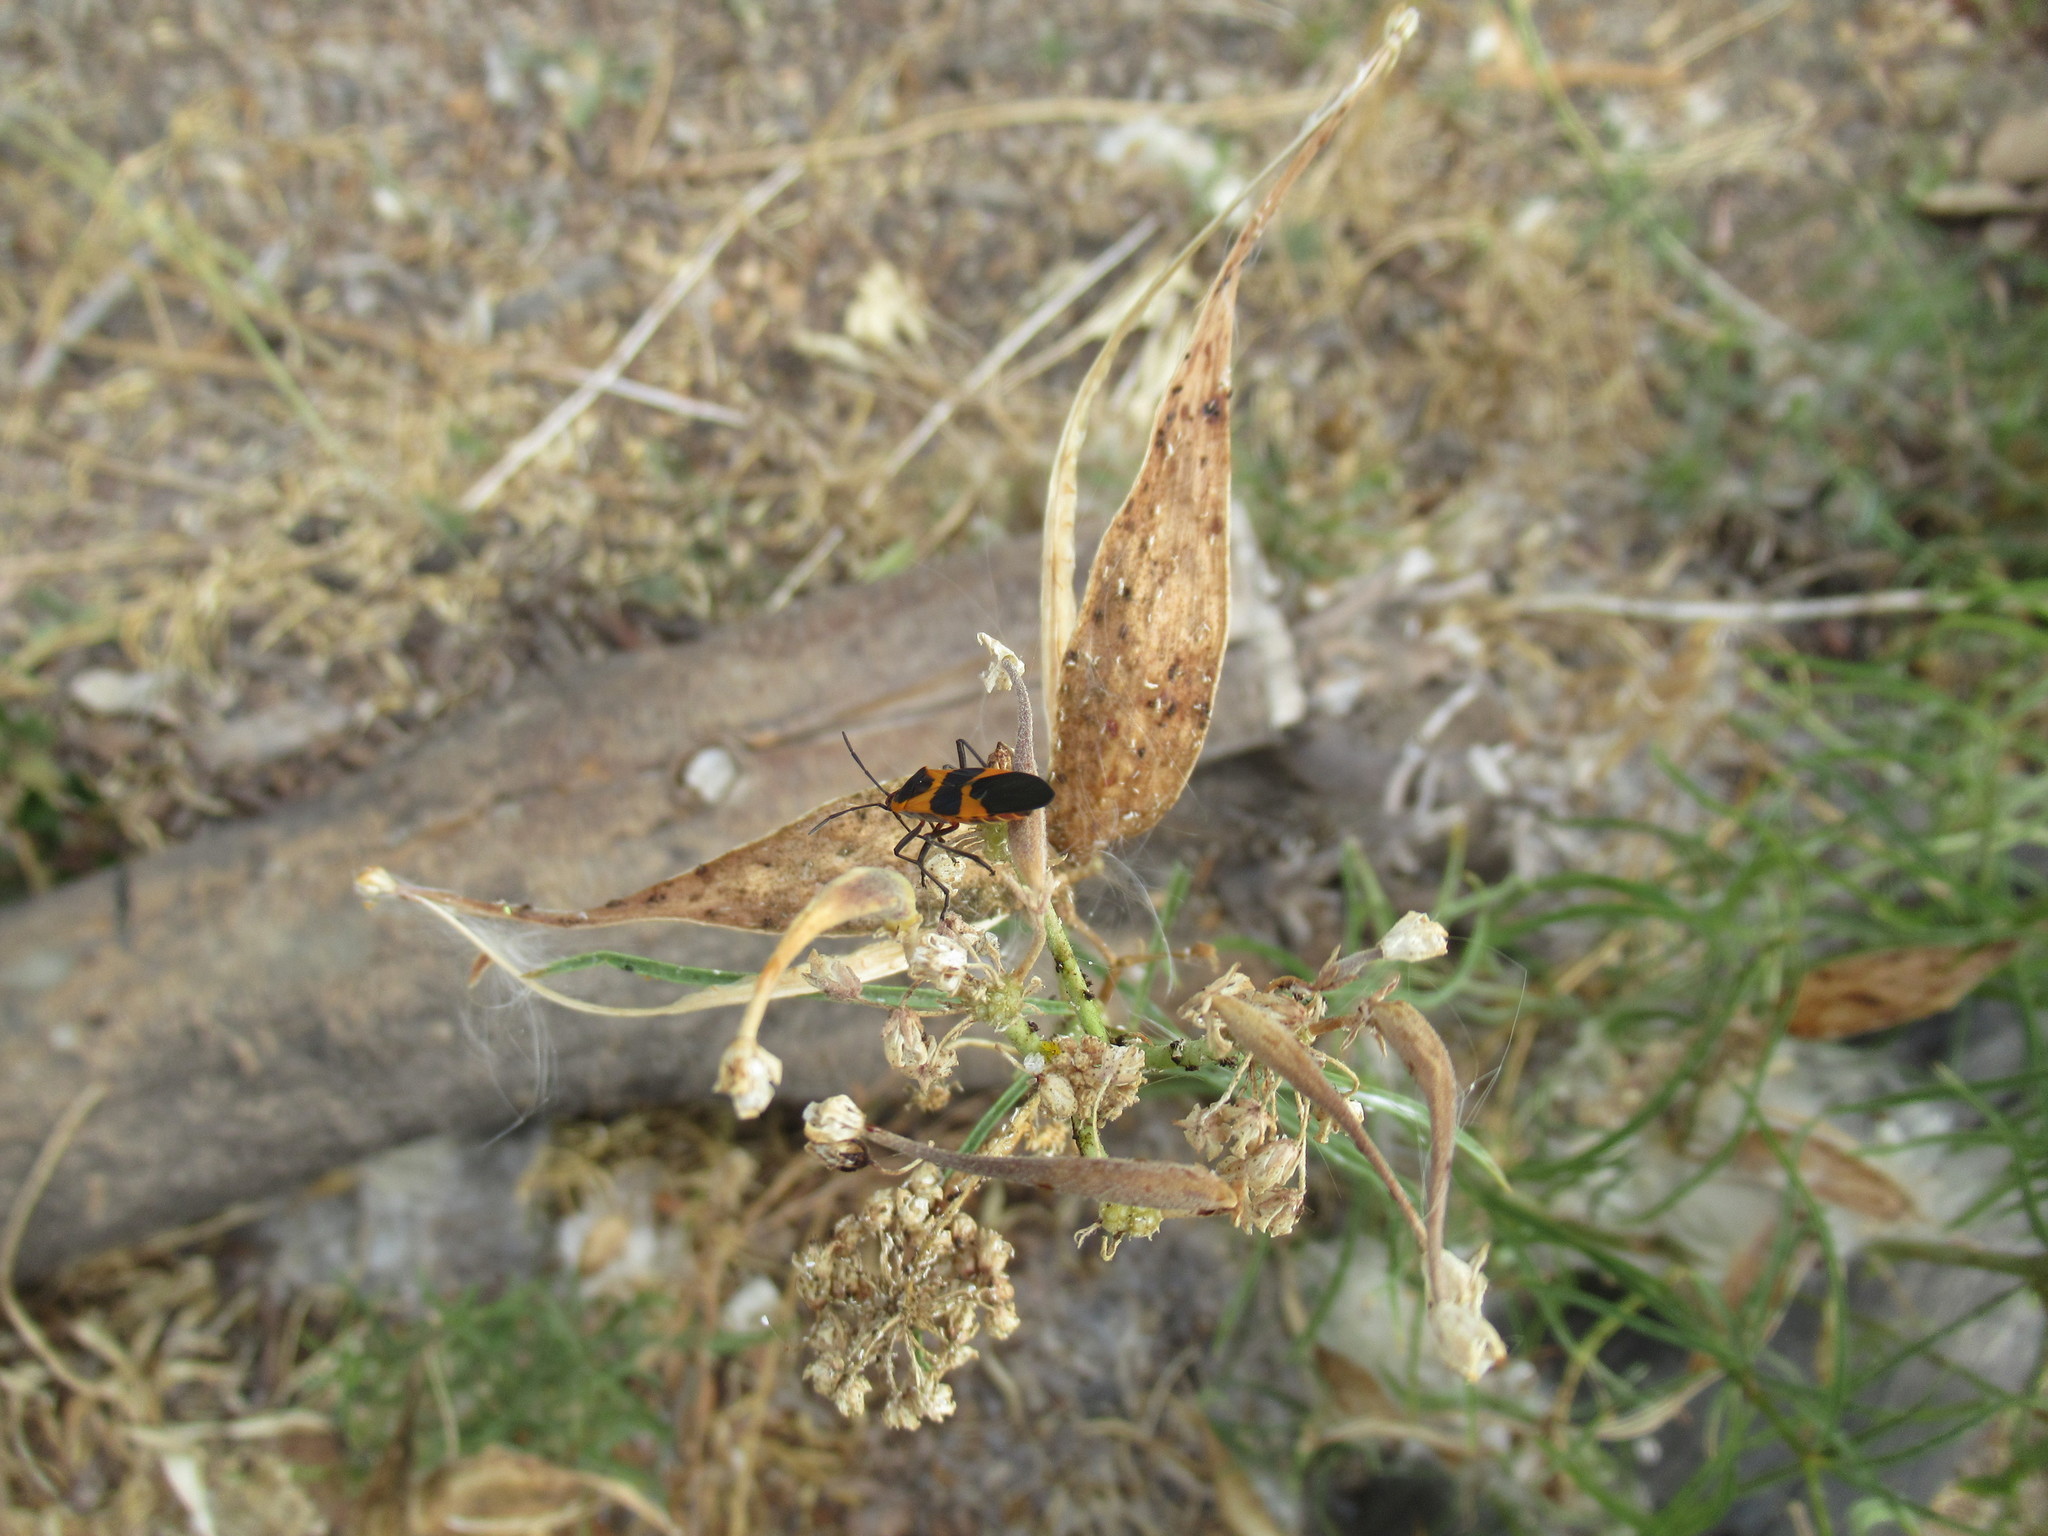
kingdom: Animalia
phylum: Arthropoda
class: Insecta
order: Hemiptera
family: Lygaeidae
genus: Oncopeltus
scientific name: Oncopeltus fasciatus
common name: Large milkweed bug
